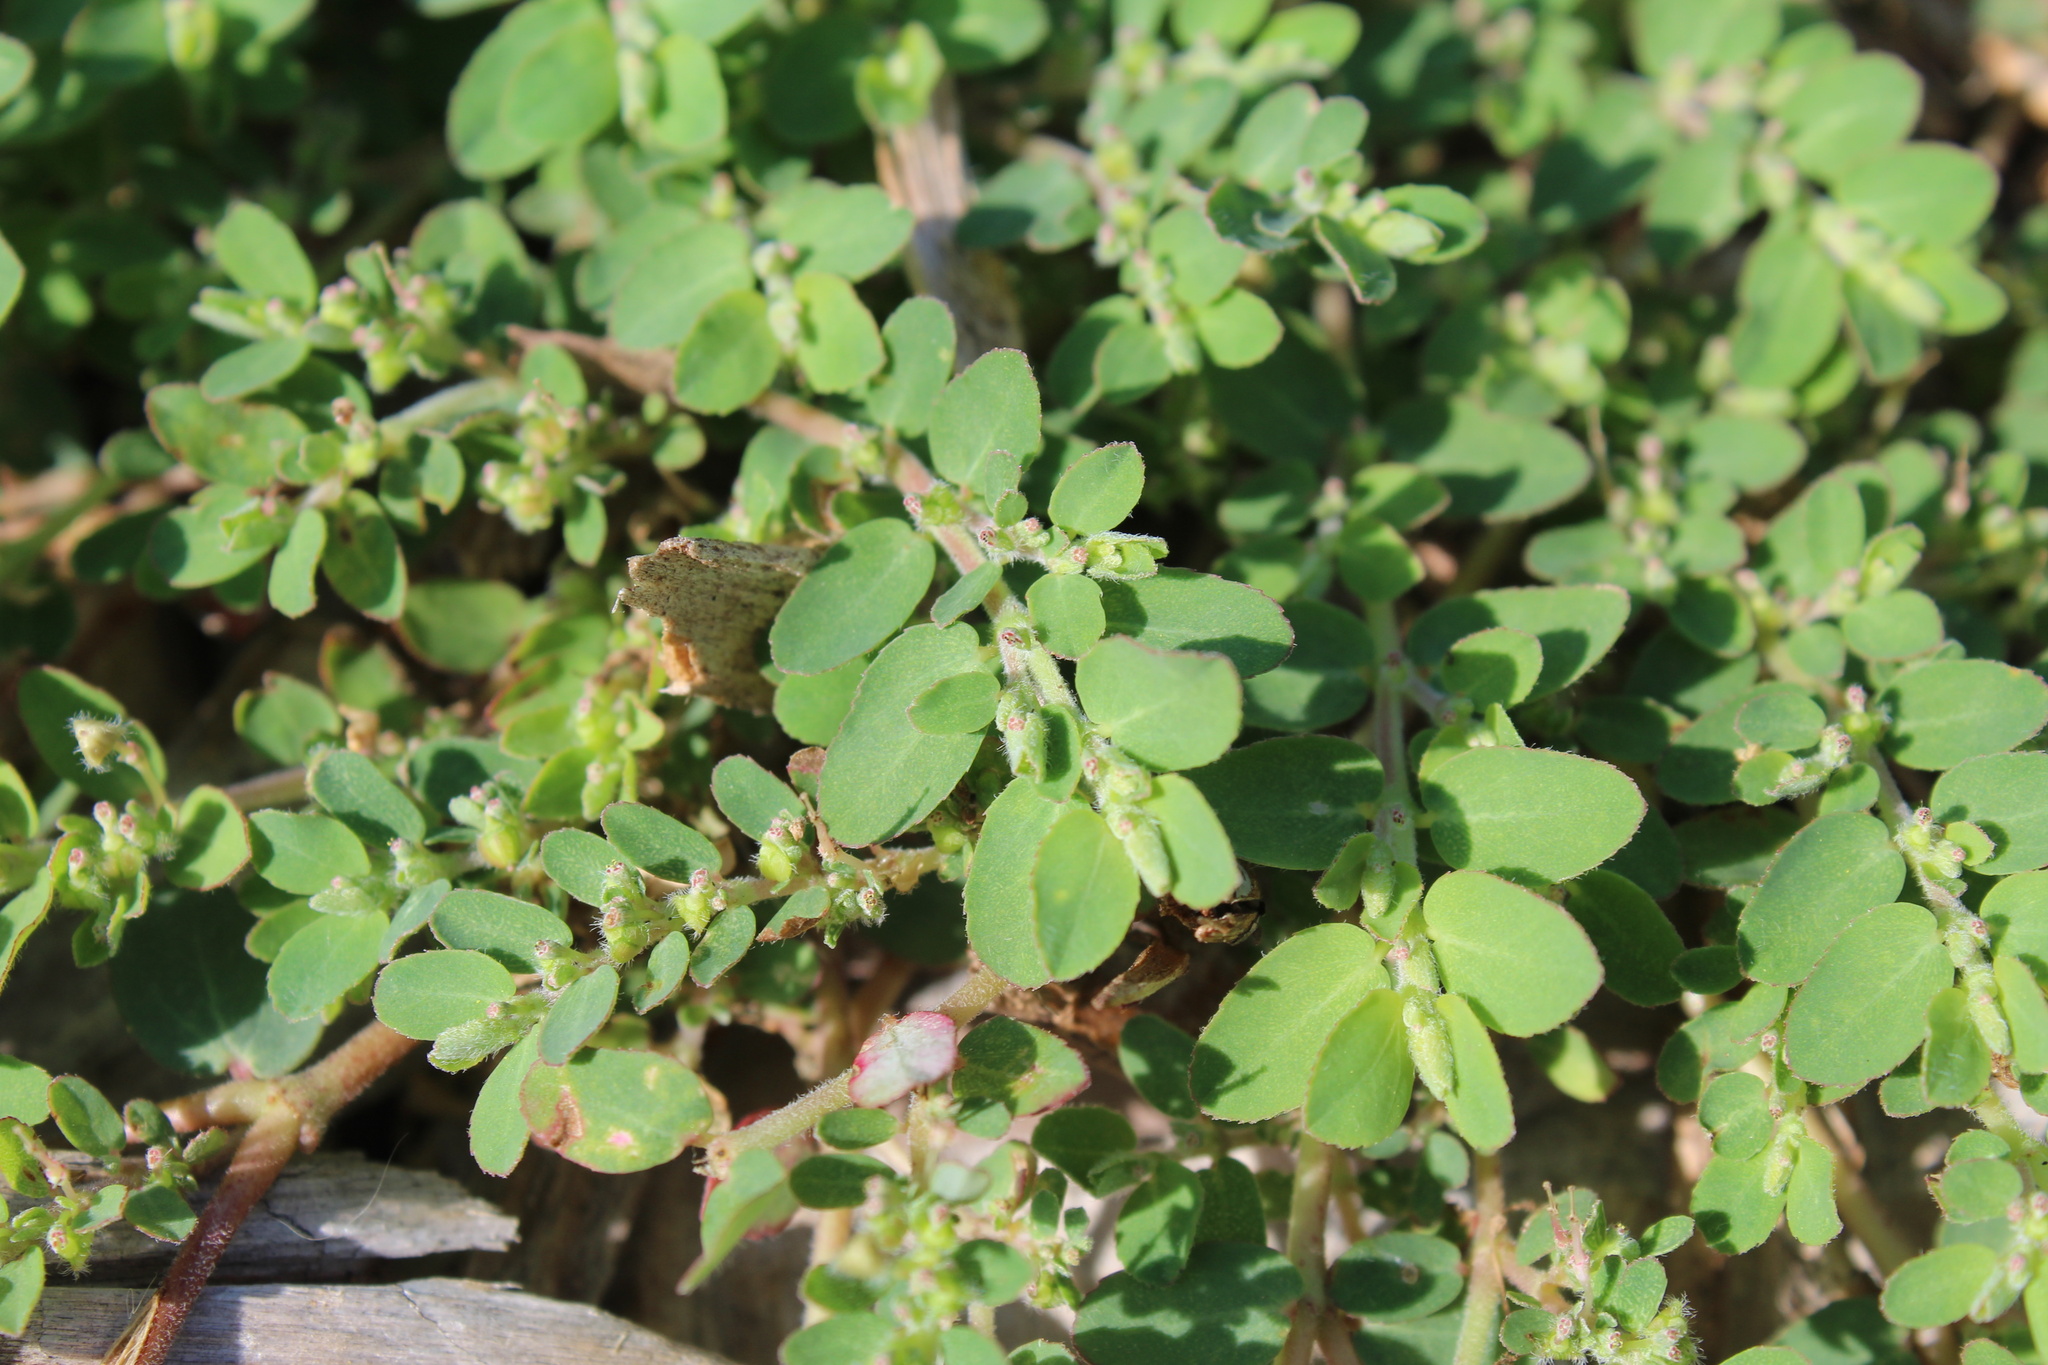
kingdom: Plantae
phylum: Tracheophyta
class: Magnoliopsida
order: Malpighiales
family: Euphorbiaceae
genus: Euphorbia
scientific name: Euphorbia prostrata
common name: Prostrate sandmat
